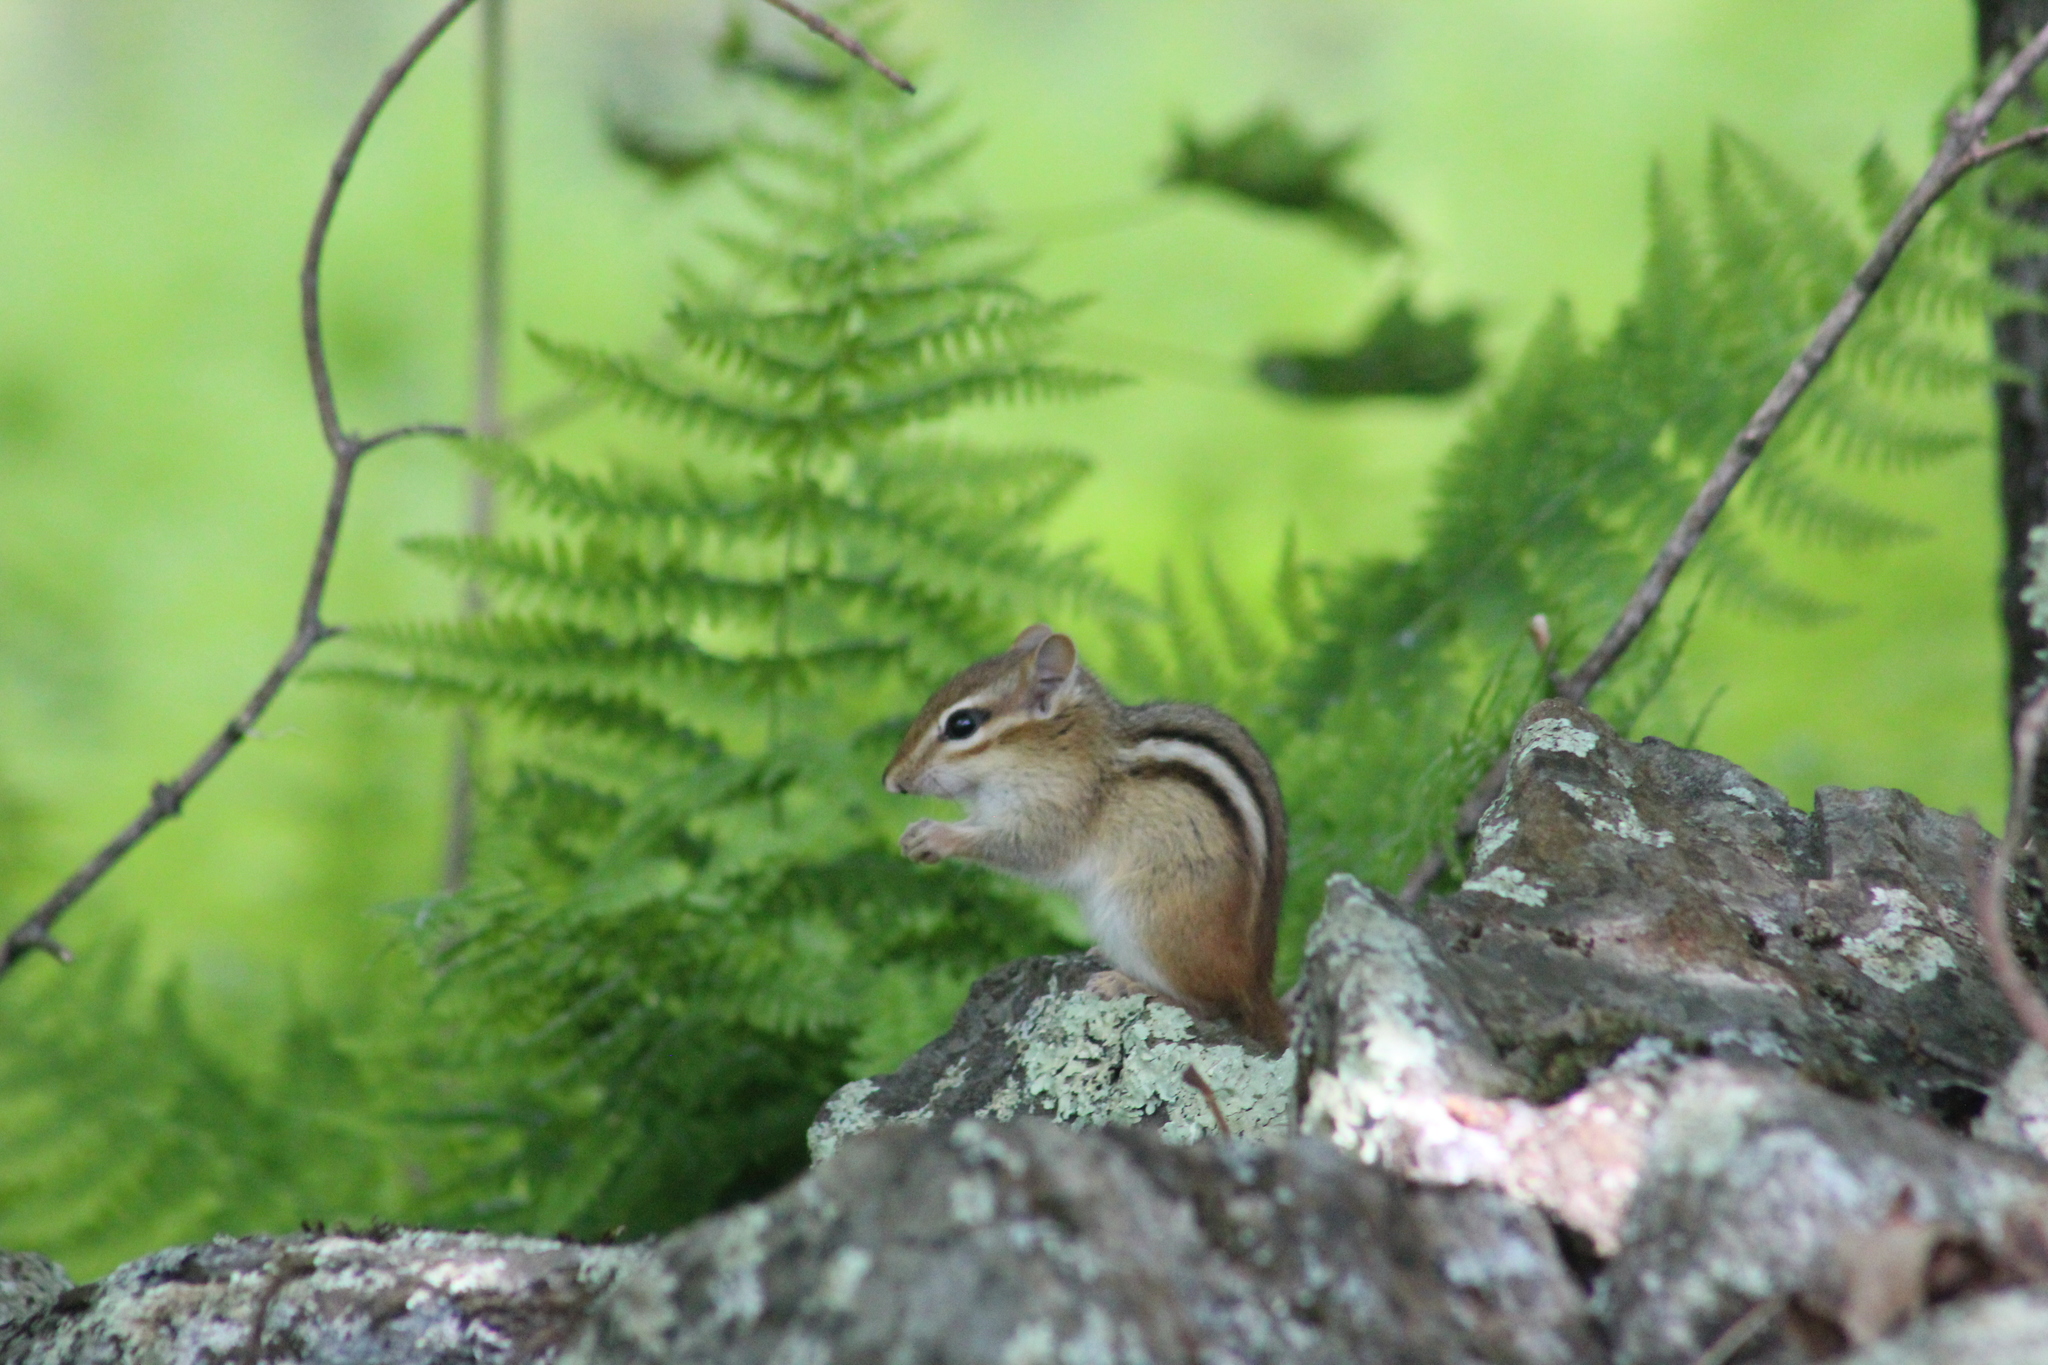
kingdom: Animalia
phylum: Chordata
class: Mammalia
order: Rodentia
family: Sciuridae
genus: Tamias
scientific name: Tamias striatus
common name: Eastern chipmunk
